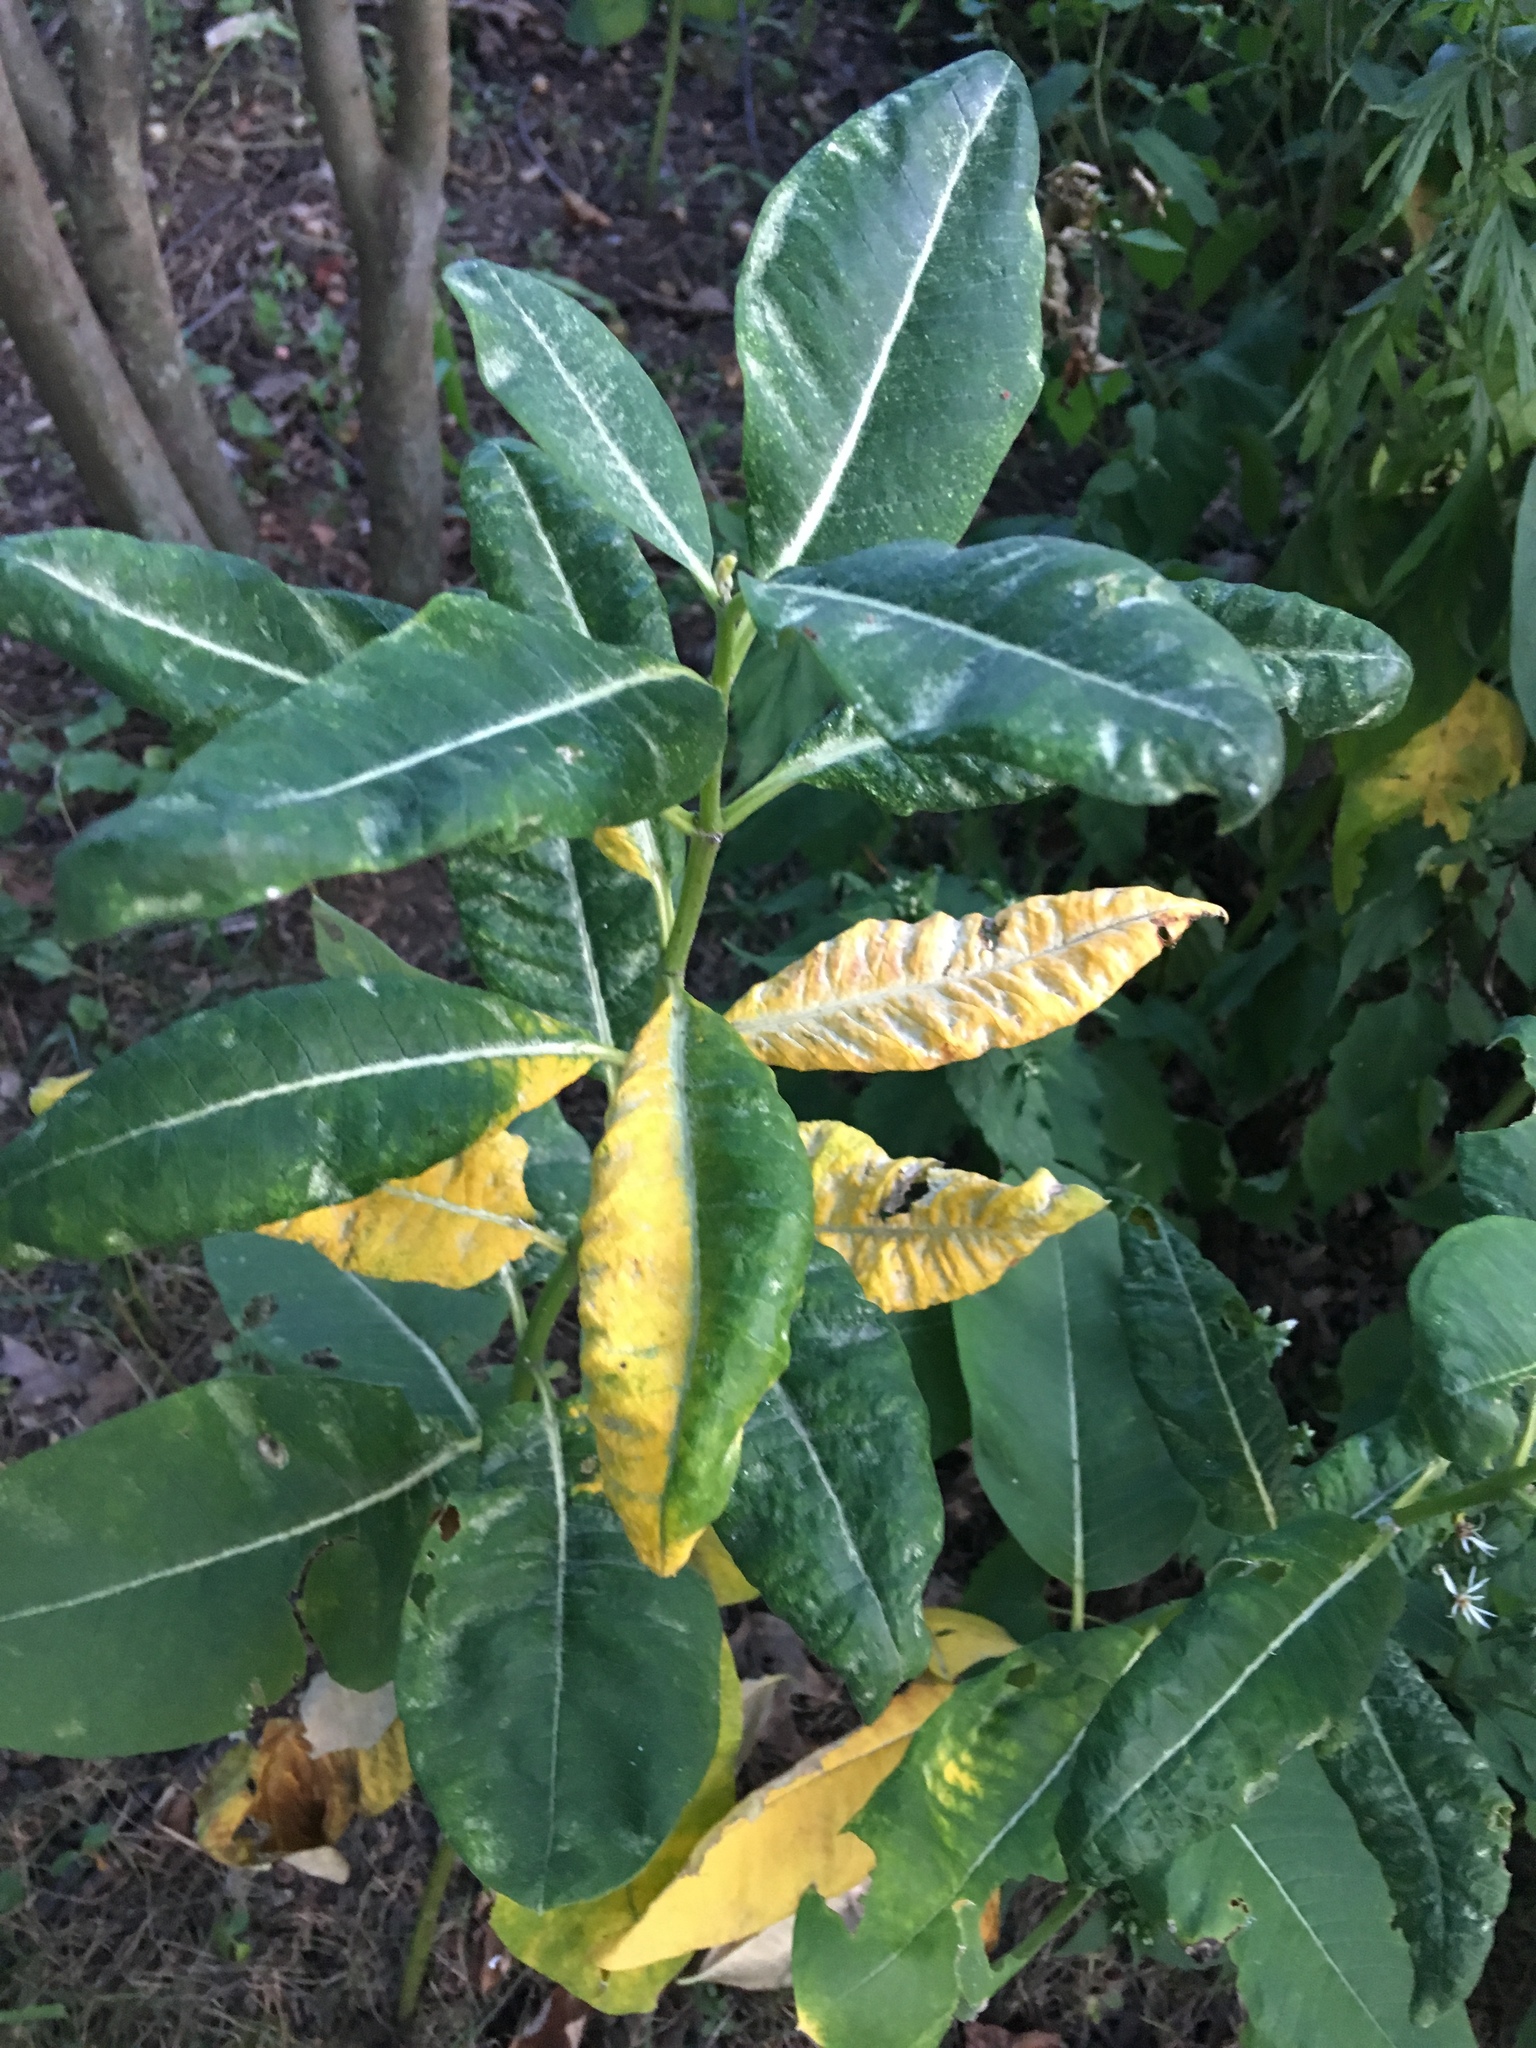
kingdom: Plantae
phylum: Tracheophyta
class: Magnoliopsida
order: Gentianales
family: Apocynaceae
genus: Asclepias
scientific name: Asclepias syriaca
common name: Common milkweed
